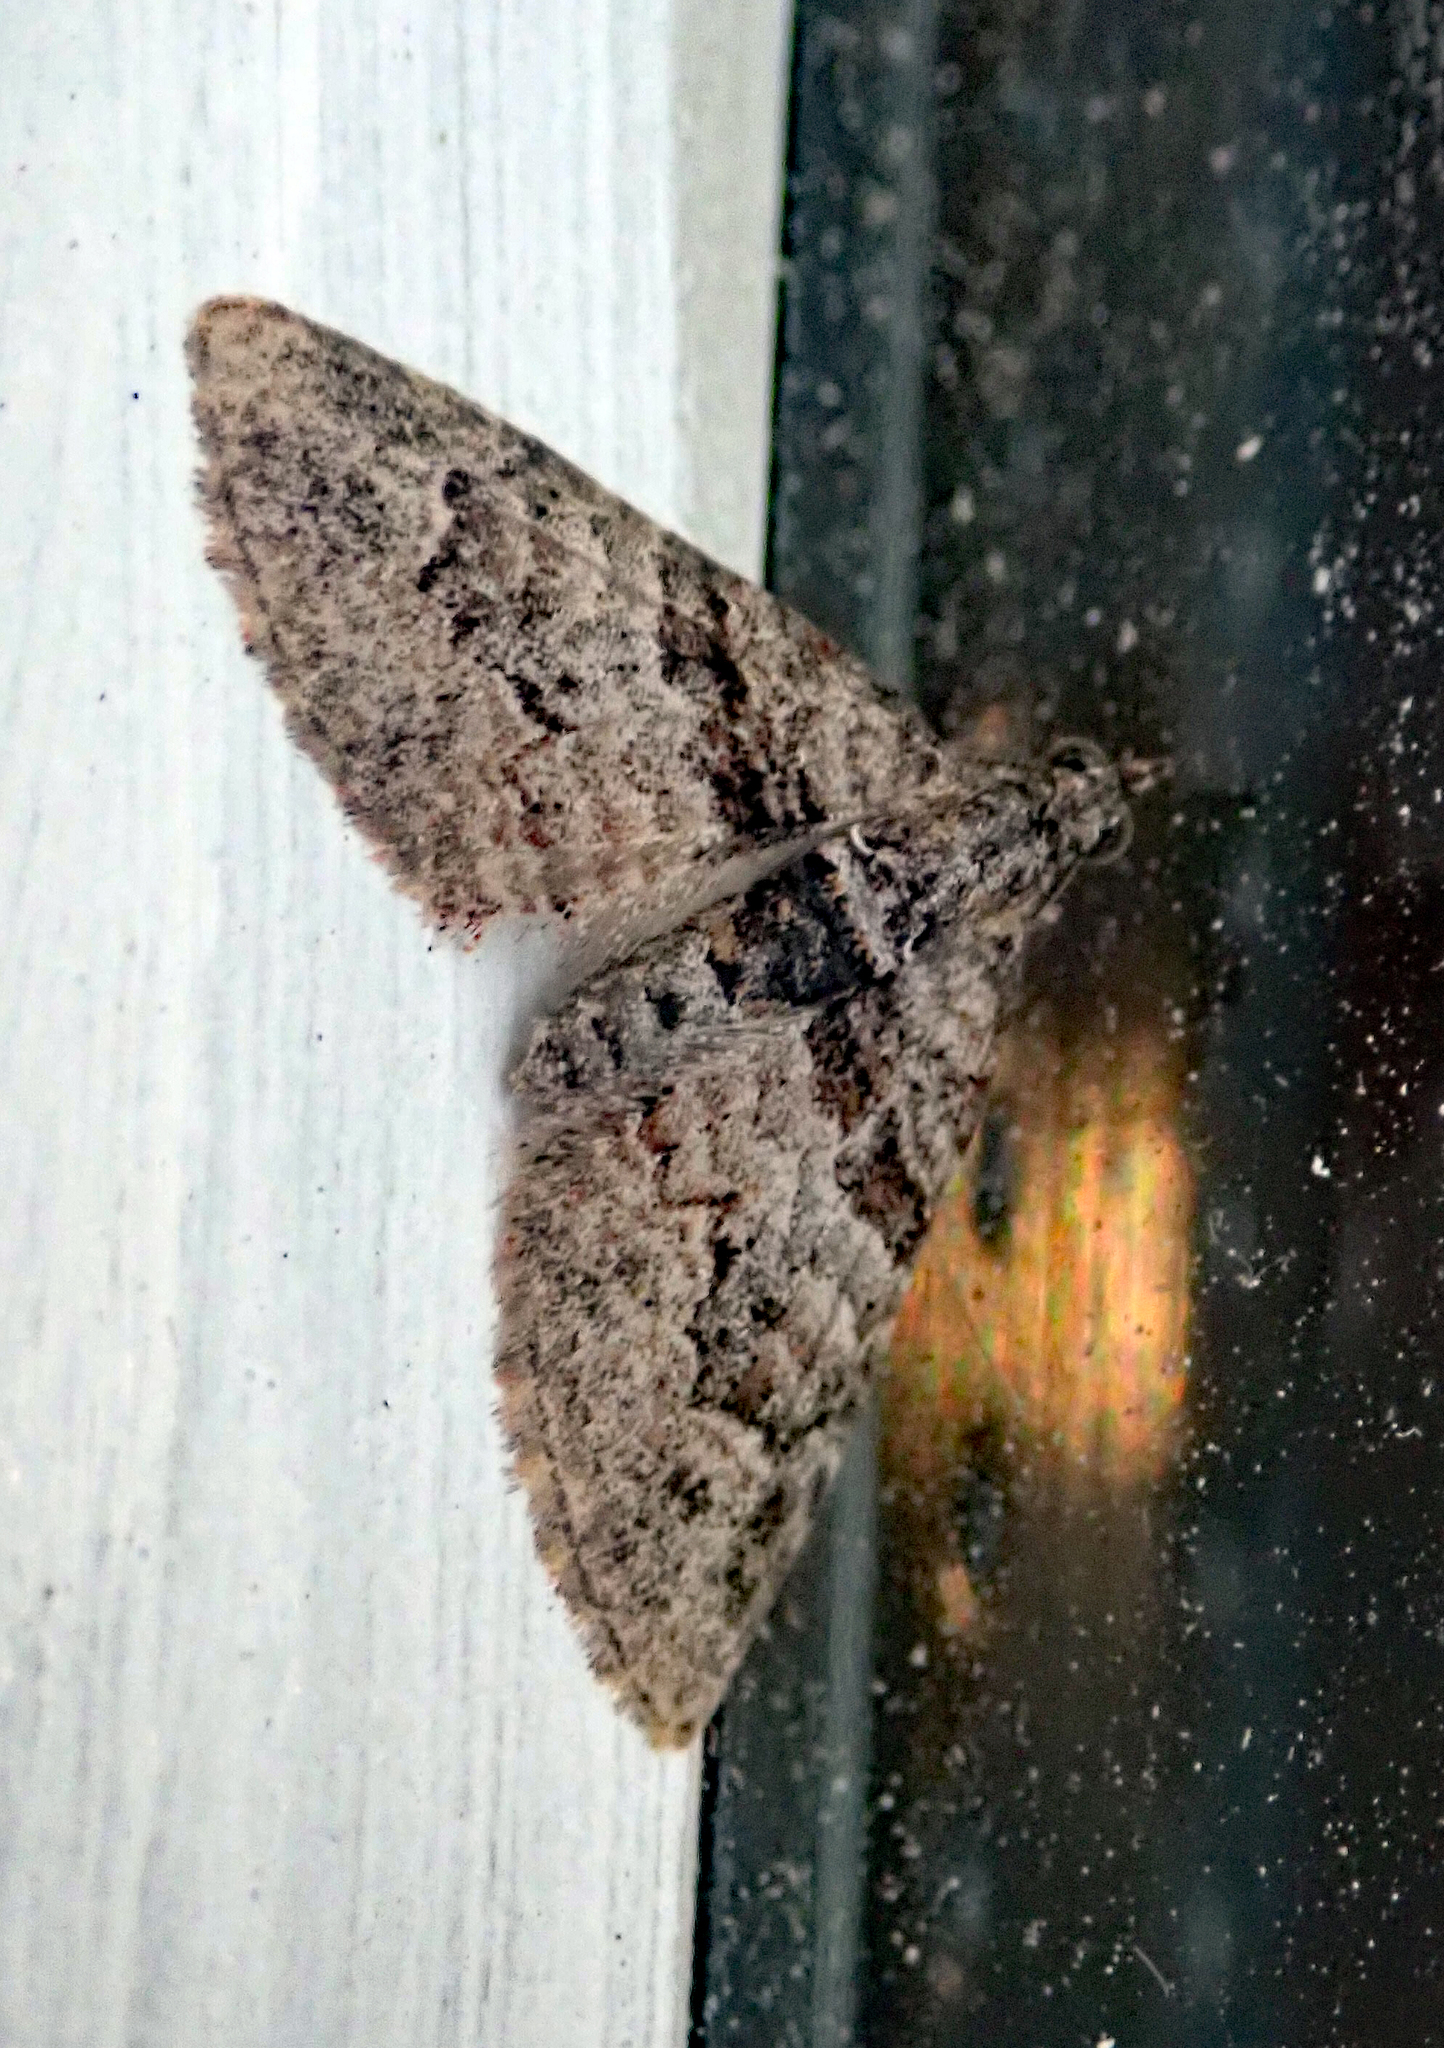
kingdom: Animalia
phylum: Arthropoda
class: Insecta
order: Lepidoptera
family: Geometridae
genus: Phrissogonus
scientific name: Phrissogonus laticostata
